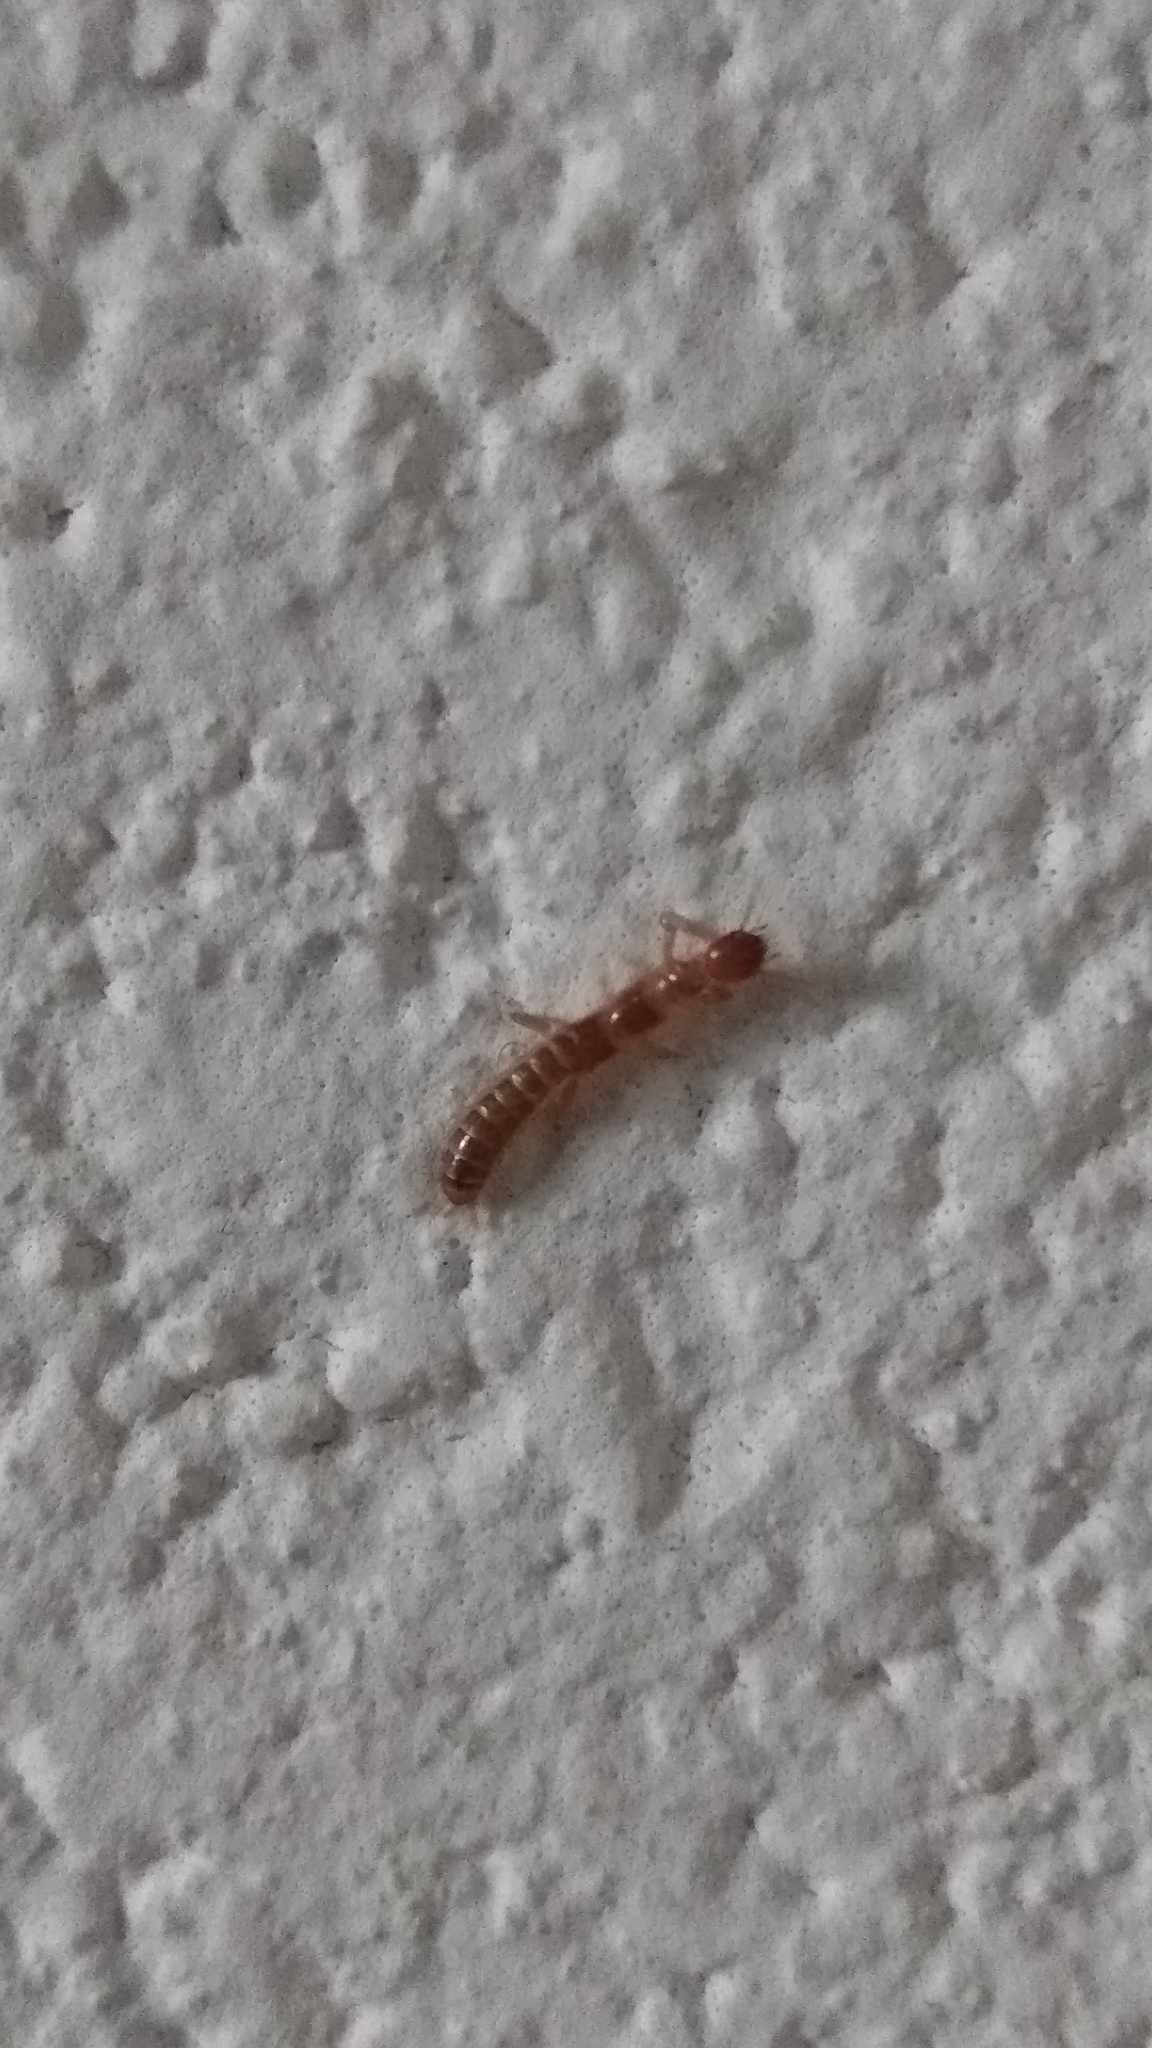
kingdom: Animalia
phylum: Arthropoda
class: Insecta
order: Embioptera
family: Oligotomidae
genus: Haploembia
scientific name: Haploembia solieri
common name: Webspinner
